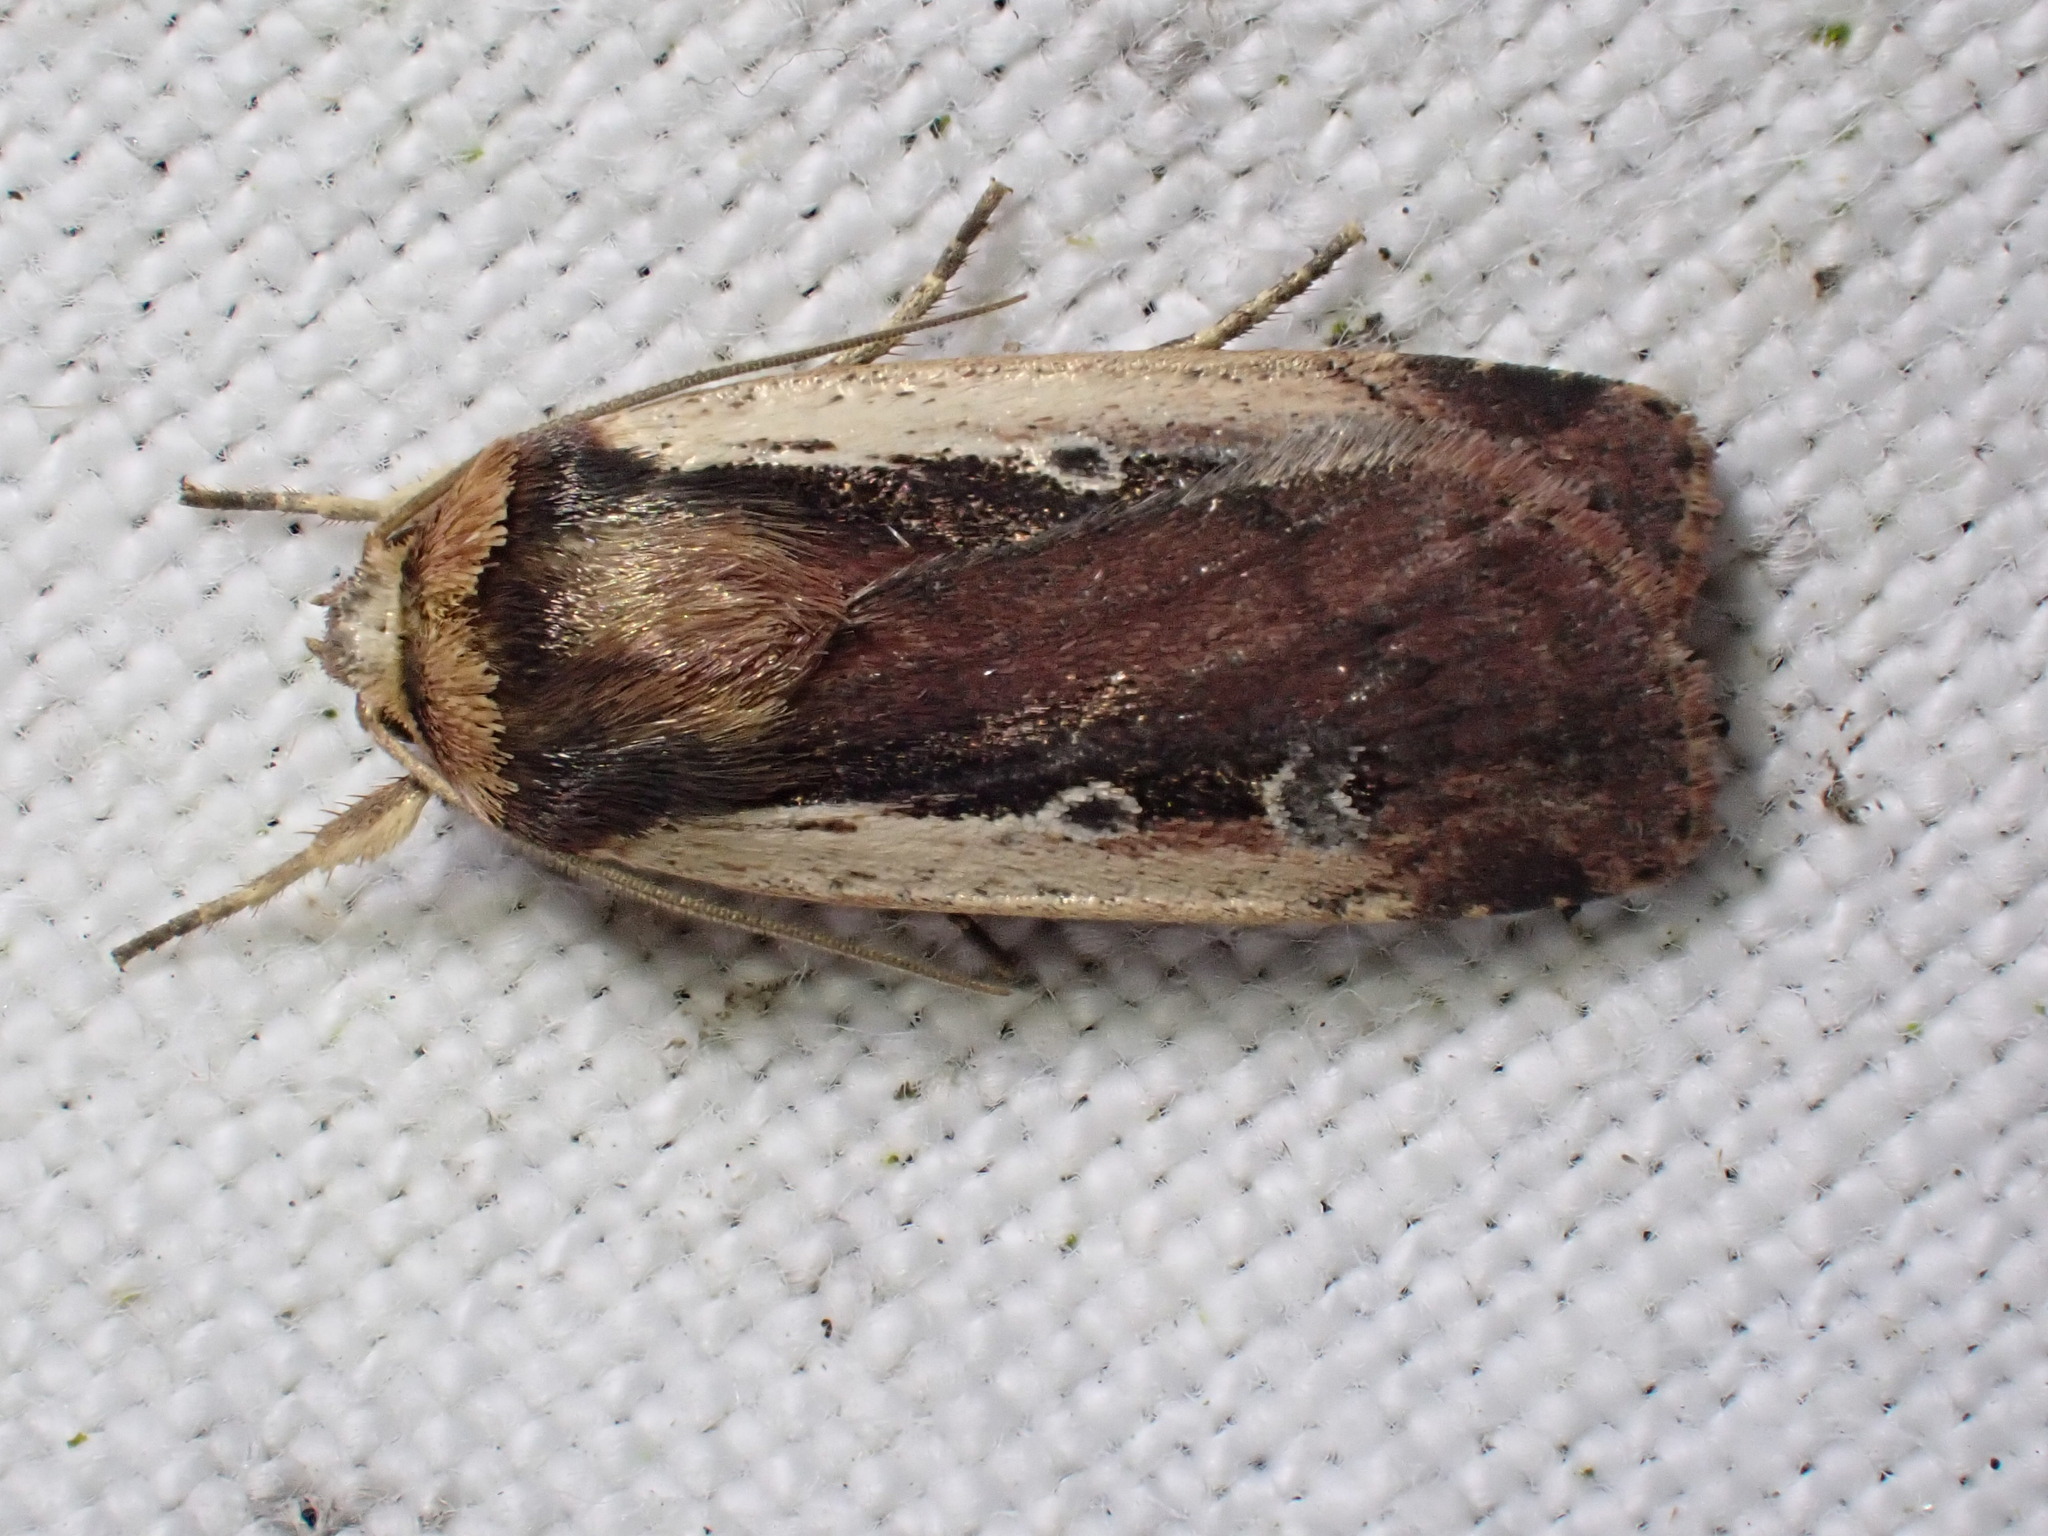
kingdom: Animalia
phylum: Arthropoda
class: Insecta
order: Lepidoptera
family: Noctuidae
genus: Ochropleura
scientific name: Ochropleura plecta
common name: Flame shoulder
